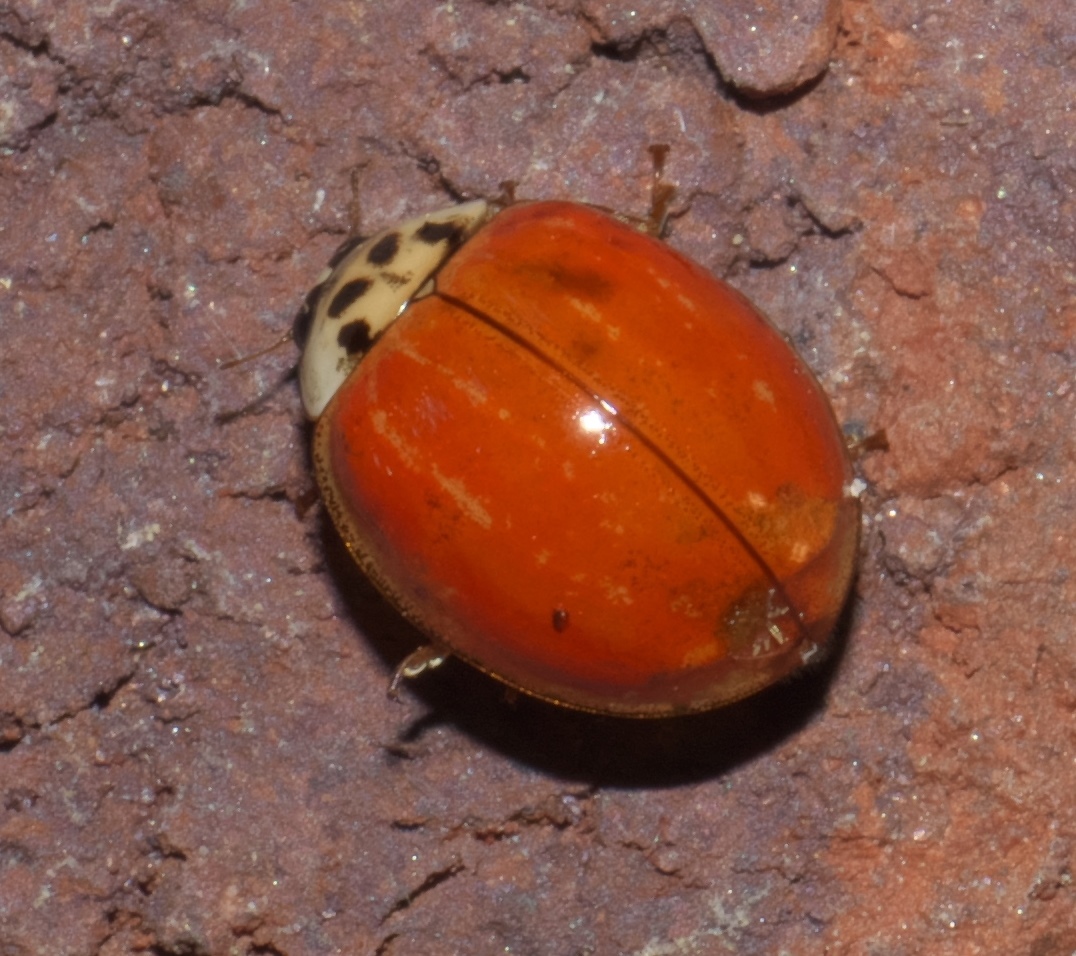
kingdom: Animalia
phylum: Arthropoda
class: Insecta
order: Coleoptera
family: Coccinellidae
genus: Harmonia
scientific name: Harmonia axyridis
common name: Harlequin ladybird
